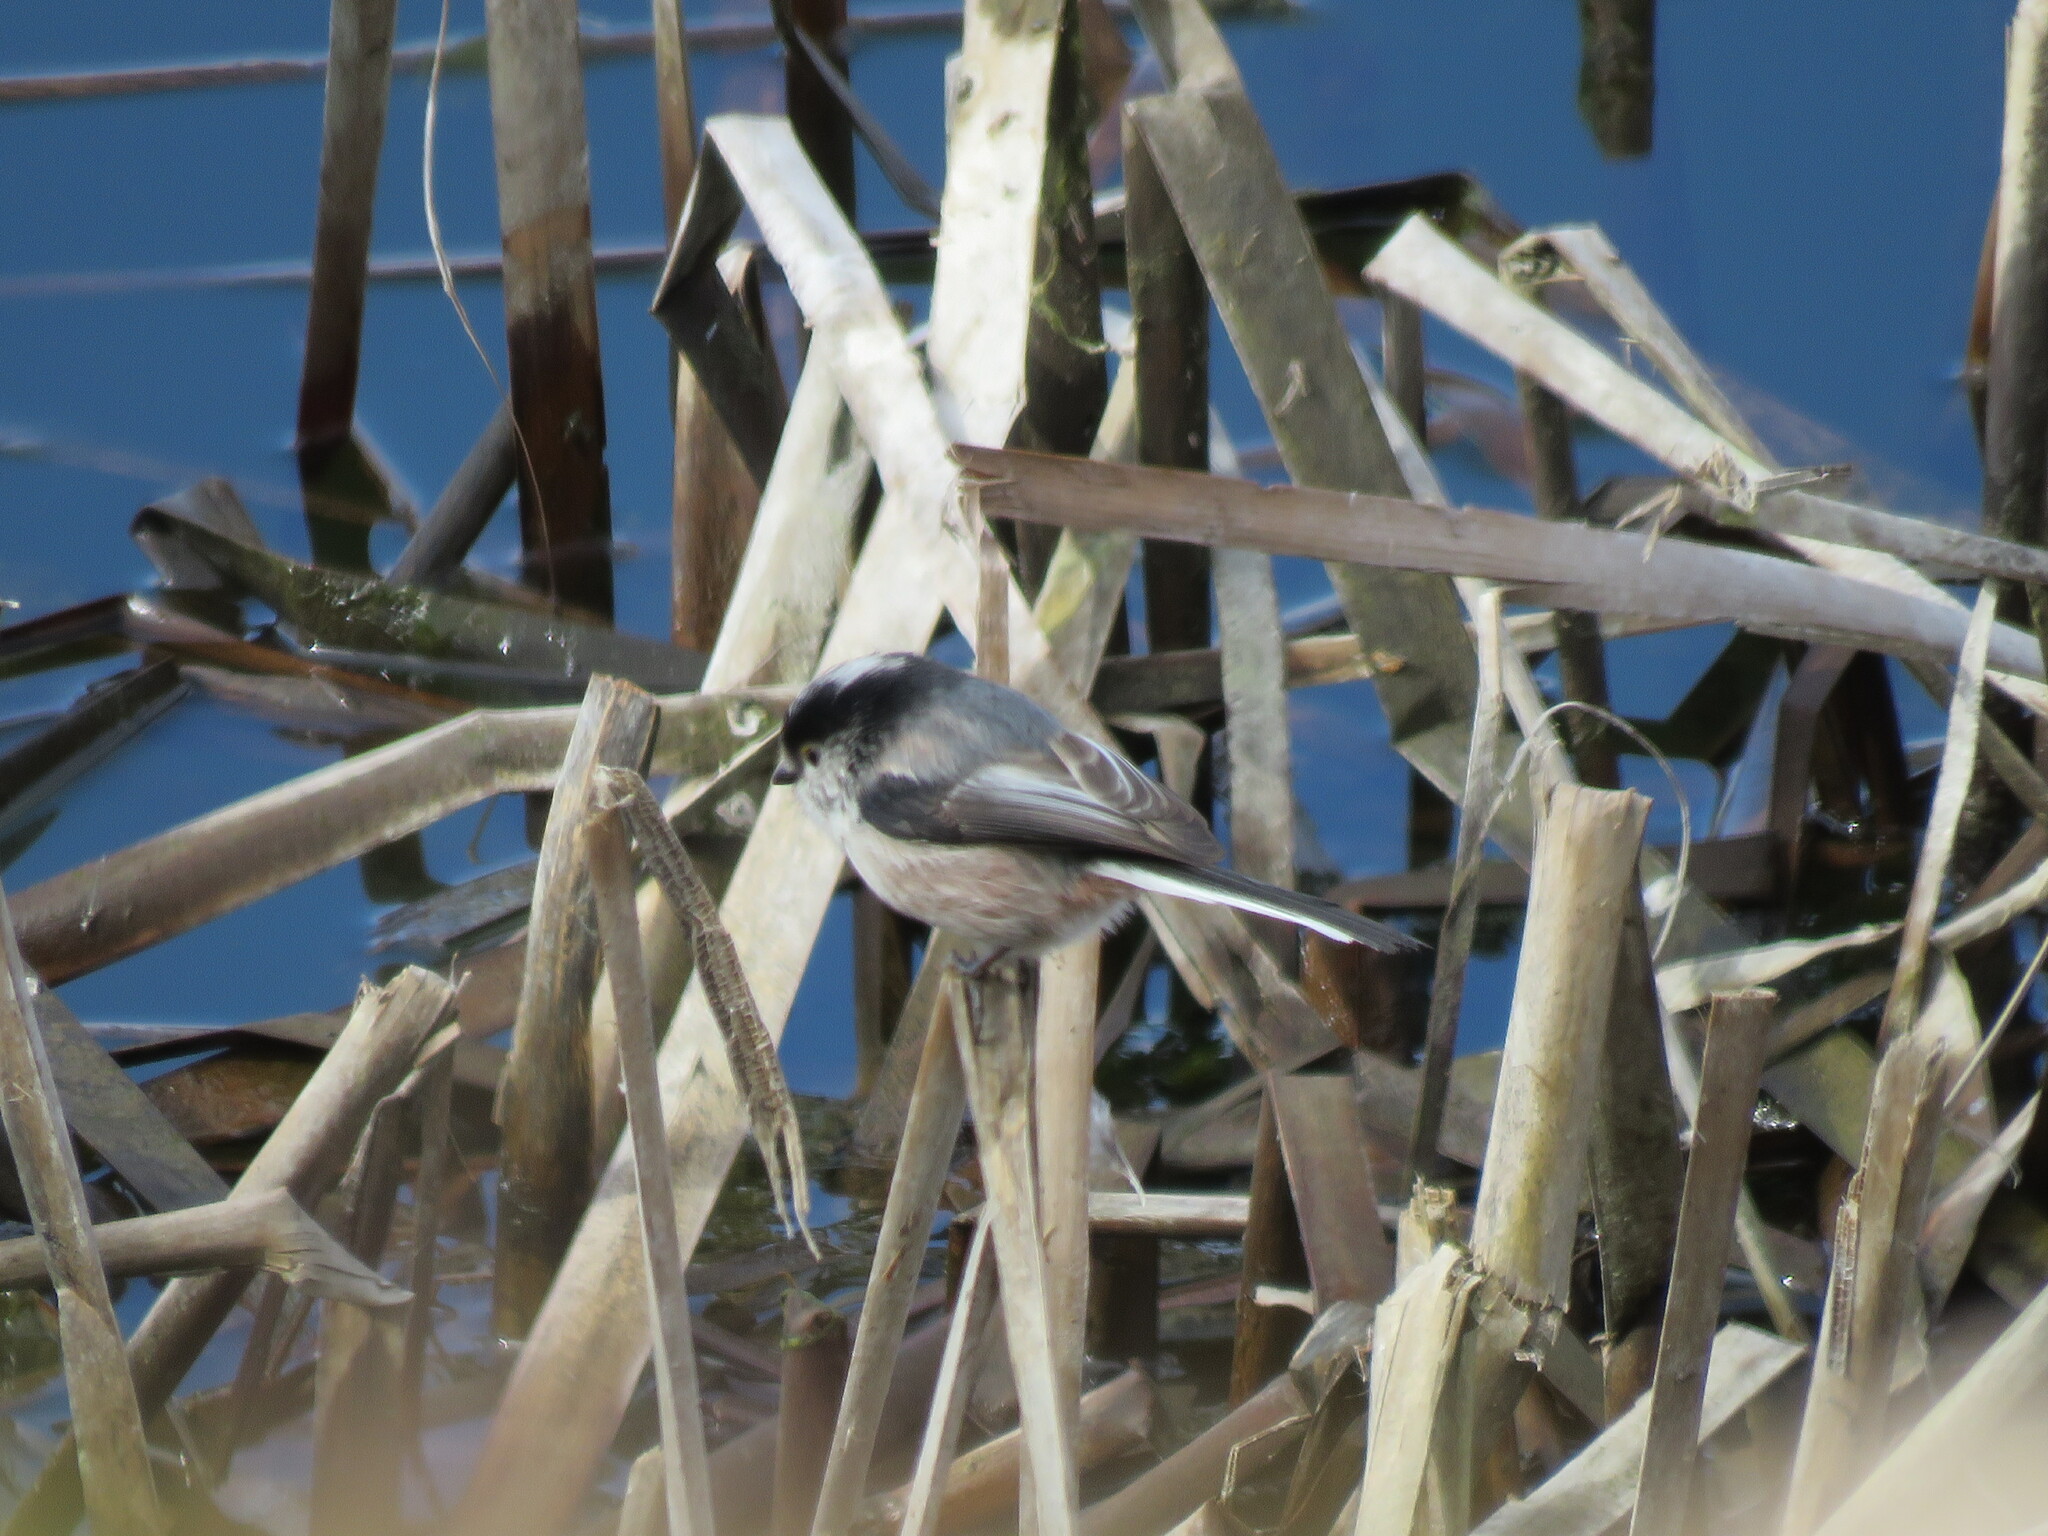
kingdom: Animalia
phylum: Chordata
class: Aves
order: Passeriformes
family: Aegithalidae
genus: Aegithalos
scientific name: Aegithalos caudatus
